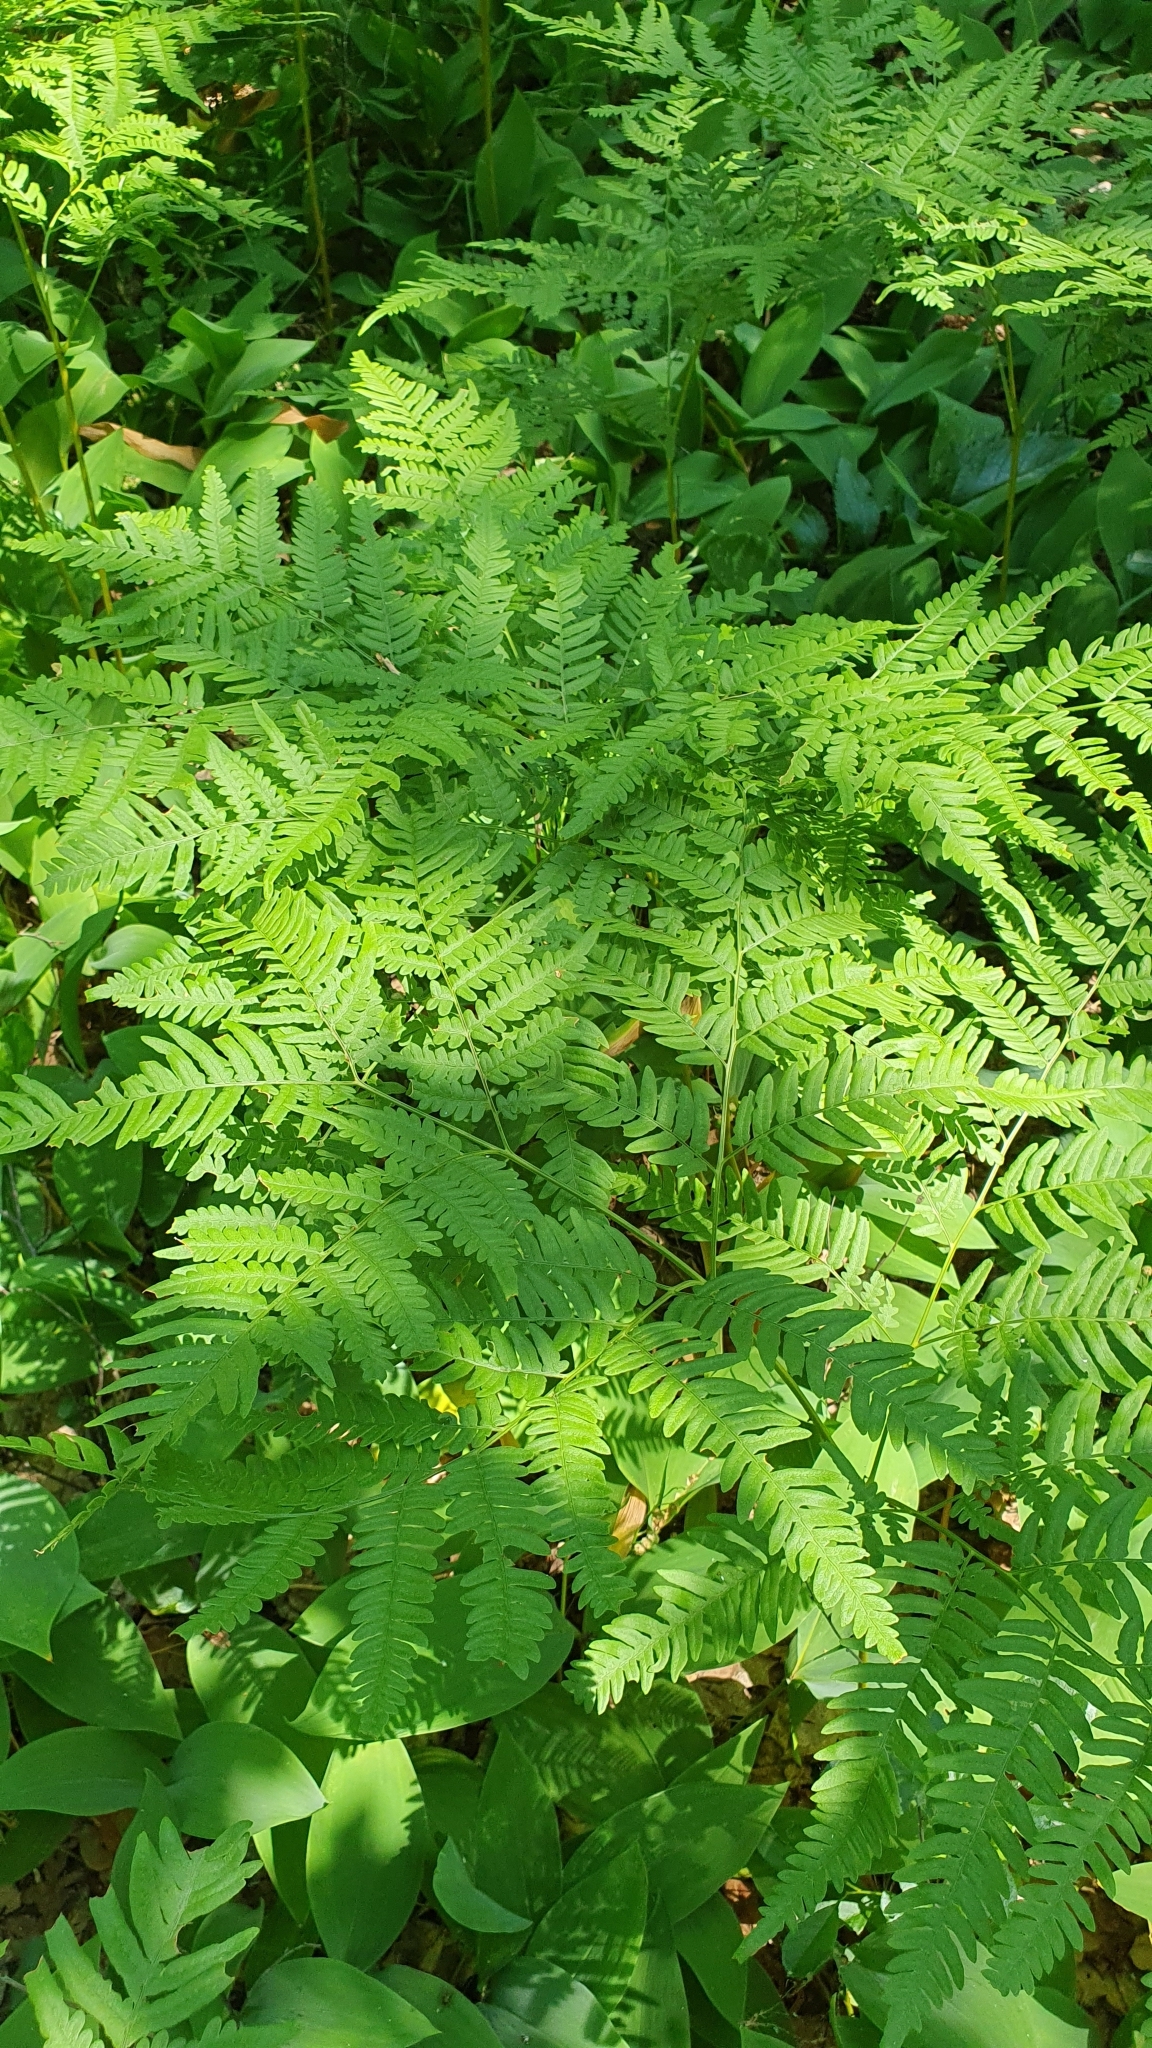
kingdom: Plantae
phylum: Tracheophyta
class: Polypodiopsida
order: Polypodiales
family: Dennstaedtiaceae
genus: Pteridium
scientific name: Pteridium aquilinum
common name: Bracken
